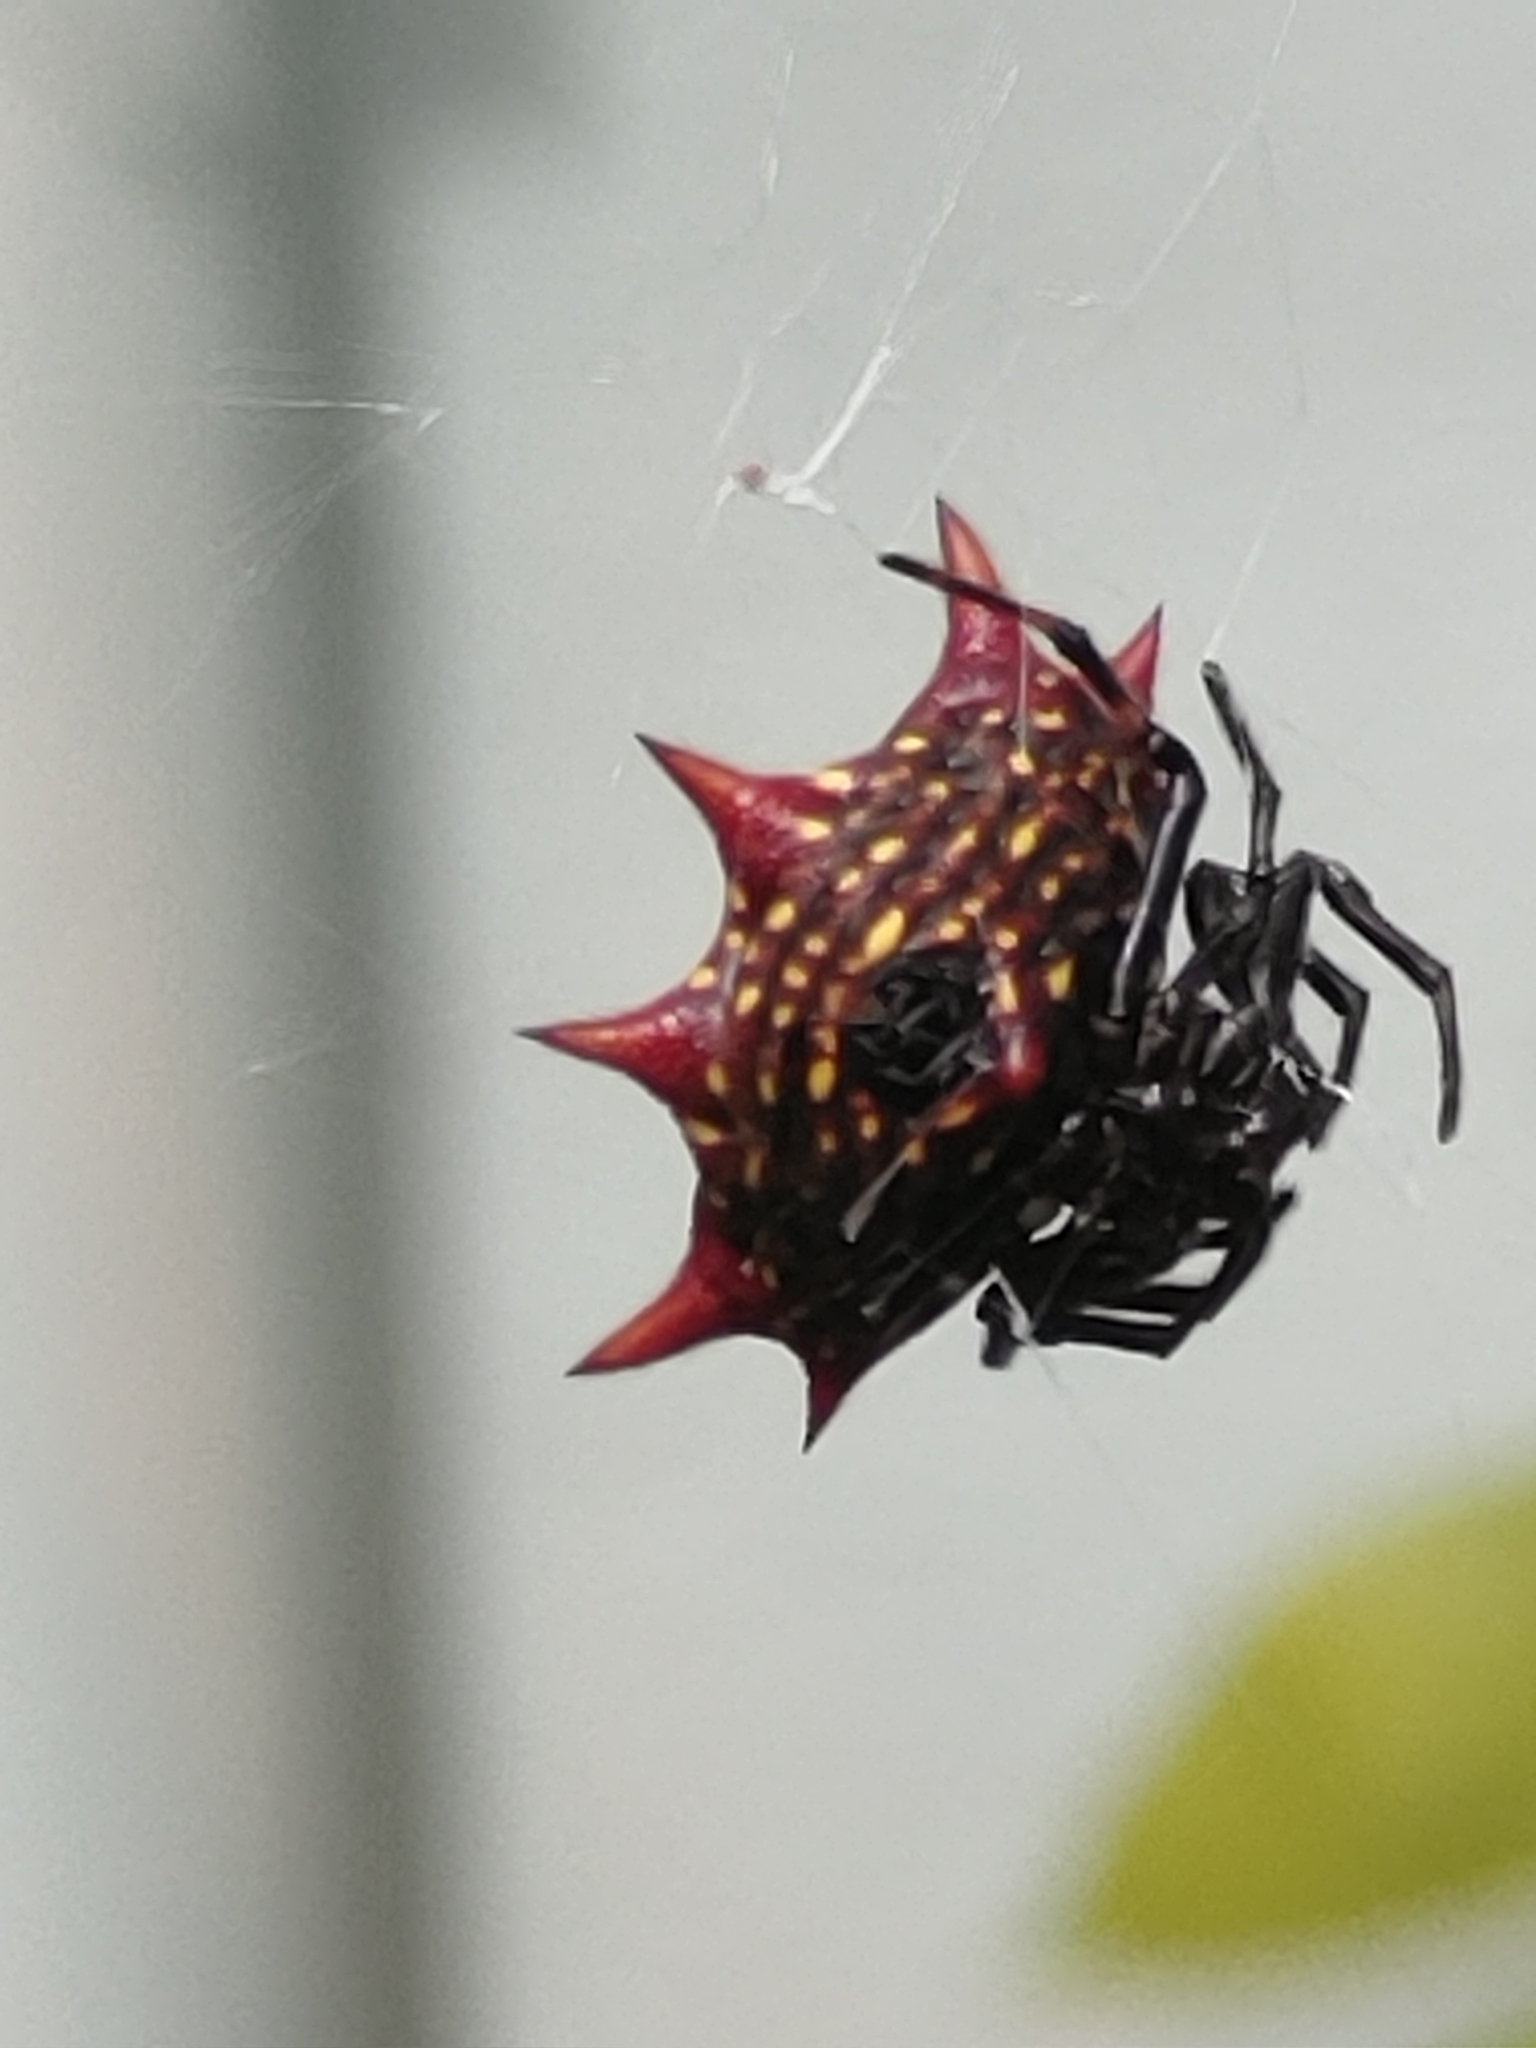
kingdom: Animalia
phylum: Arthropoda
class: Arachnida
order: Araneae
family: Araneidae
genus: Gasteracantha
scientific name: Gasteracantha cancriformis
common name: Orb weavers
